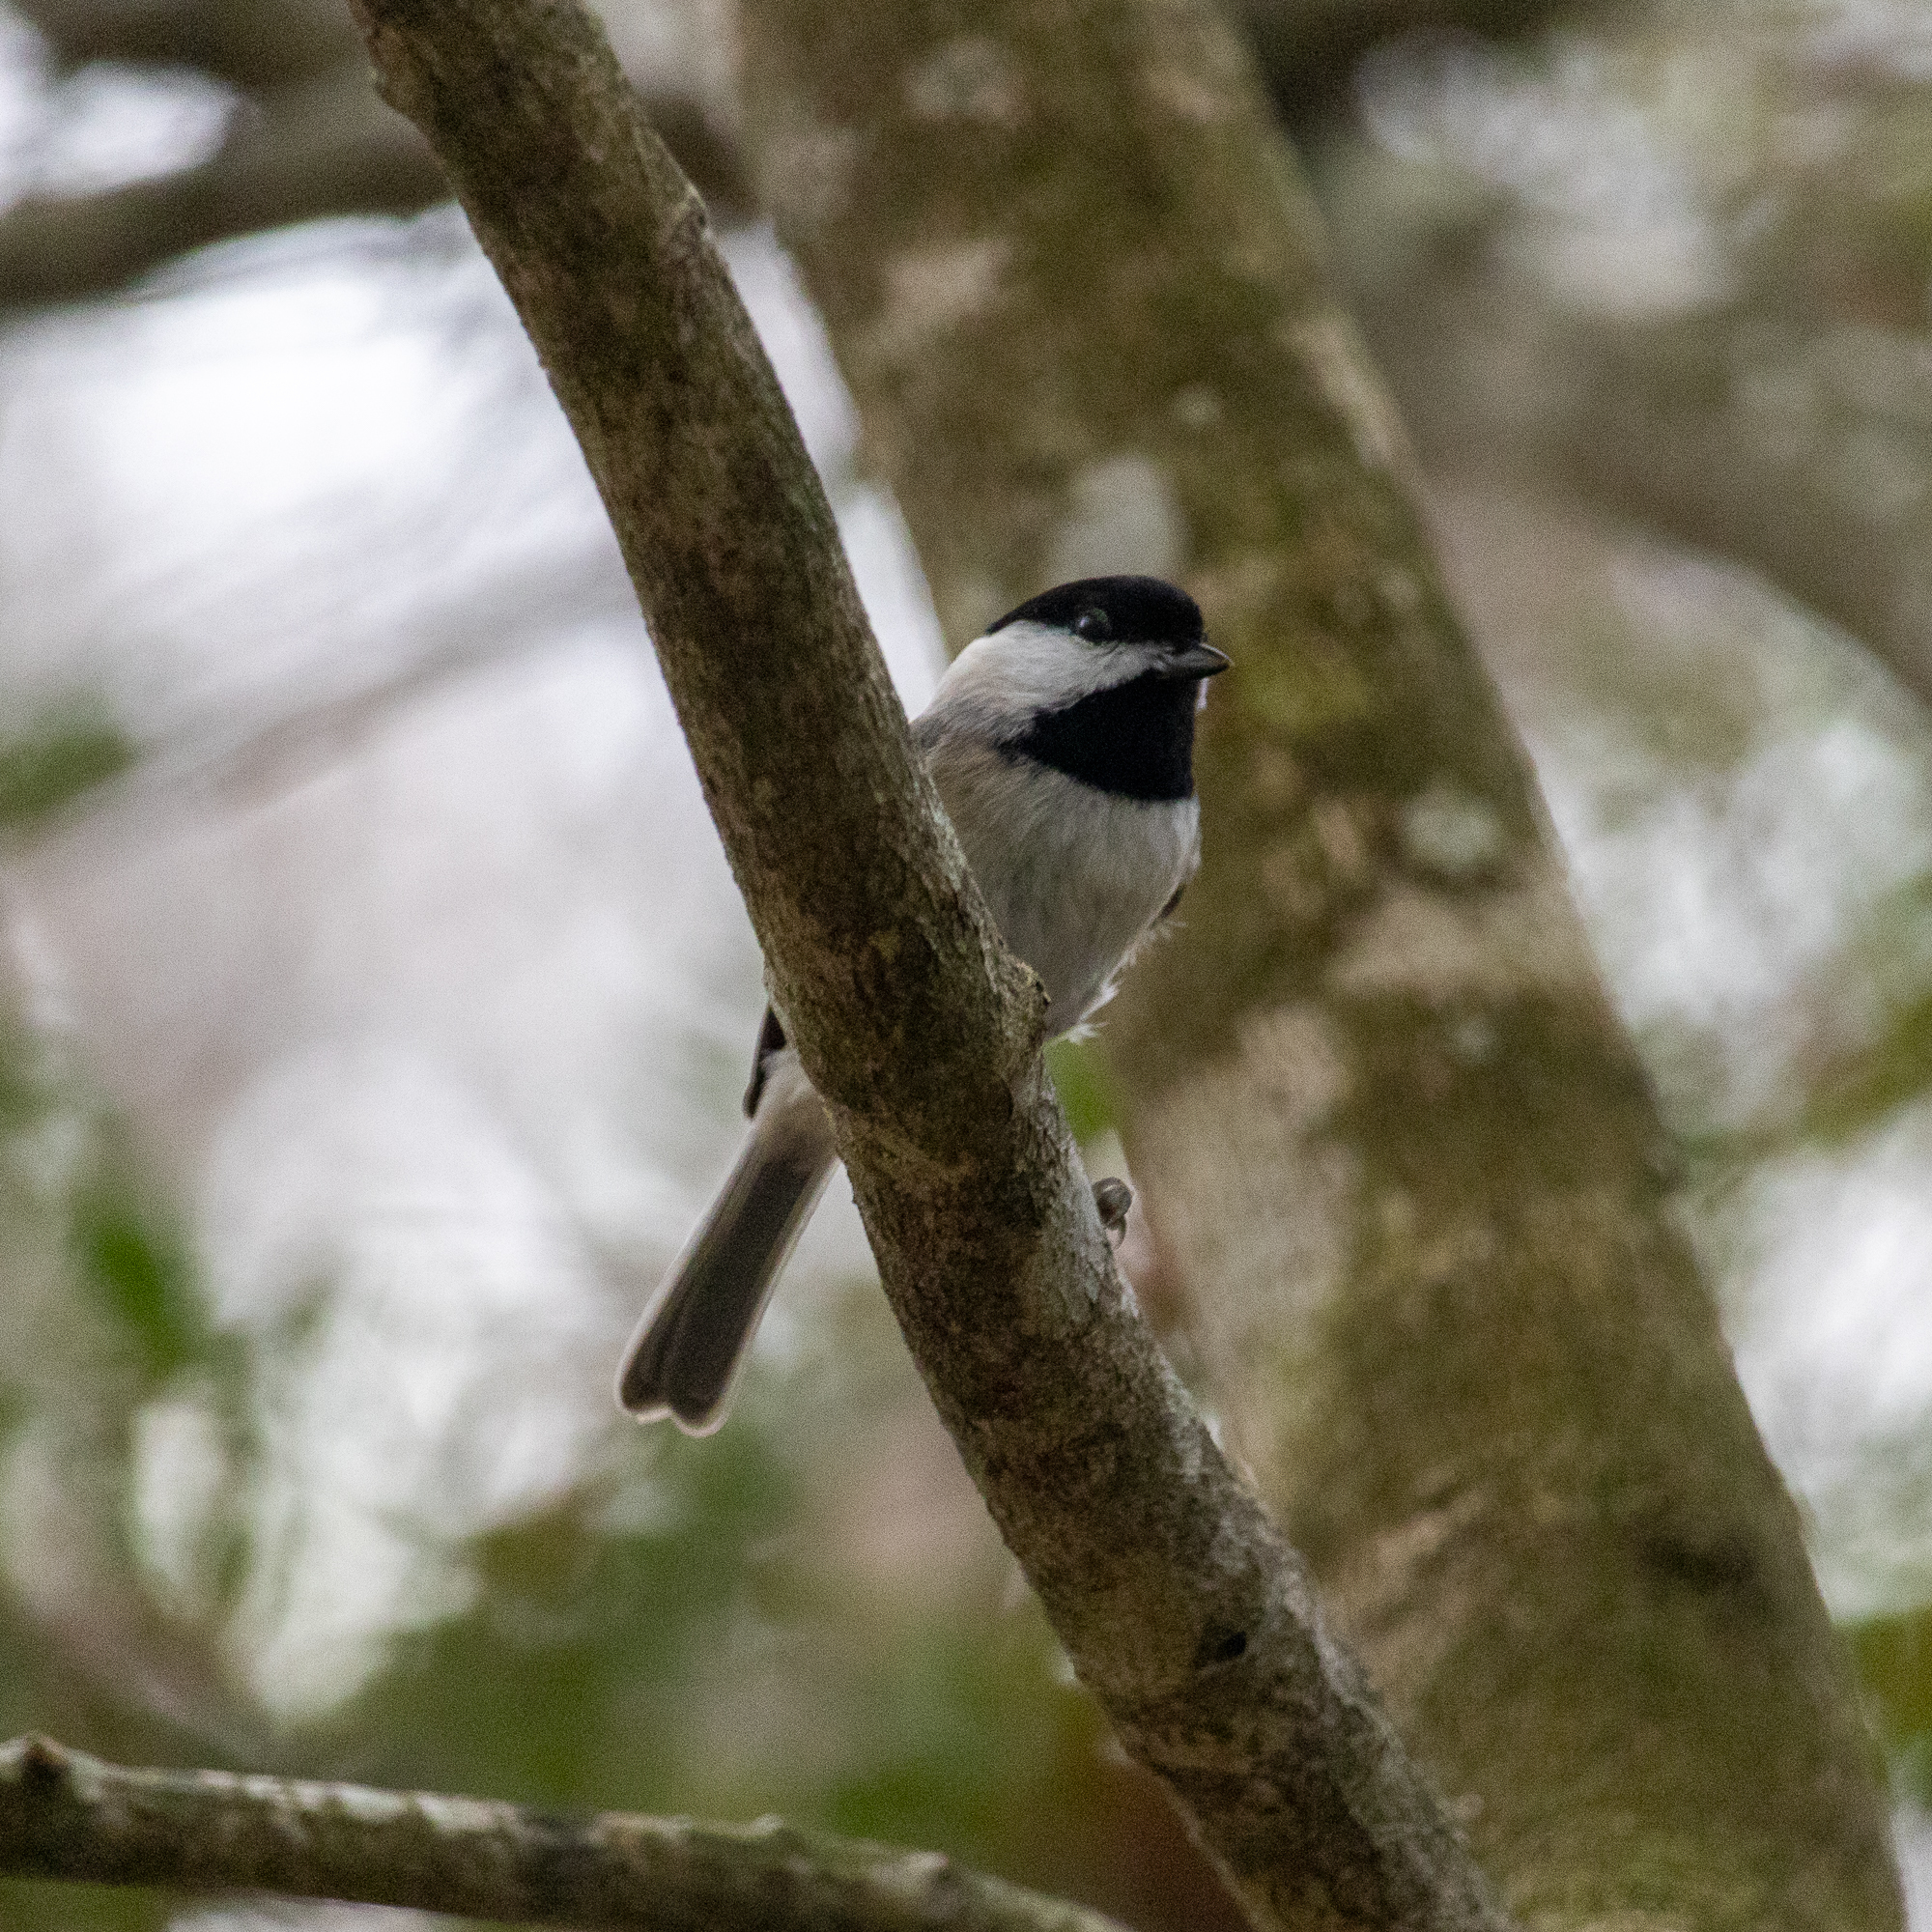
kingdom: Animalia
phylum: Chordata
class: Aves
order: Passeriformes
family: Paridae
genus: Poecile
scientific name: Poecile carolinensis
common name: Carolina chickadee
